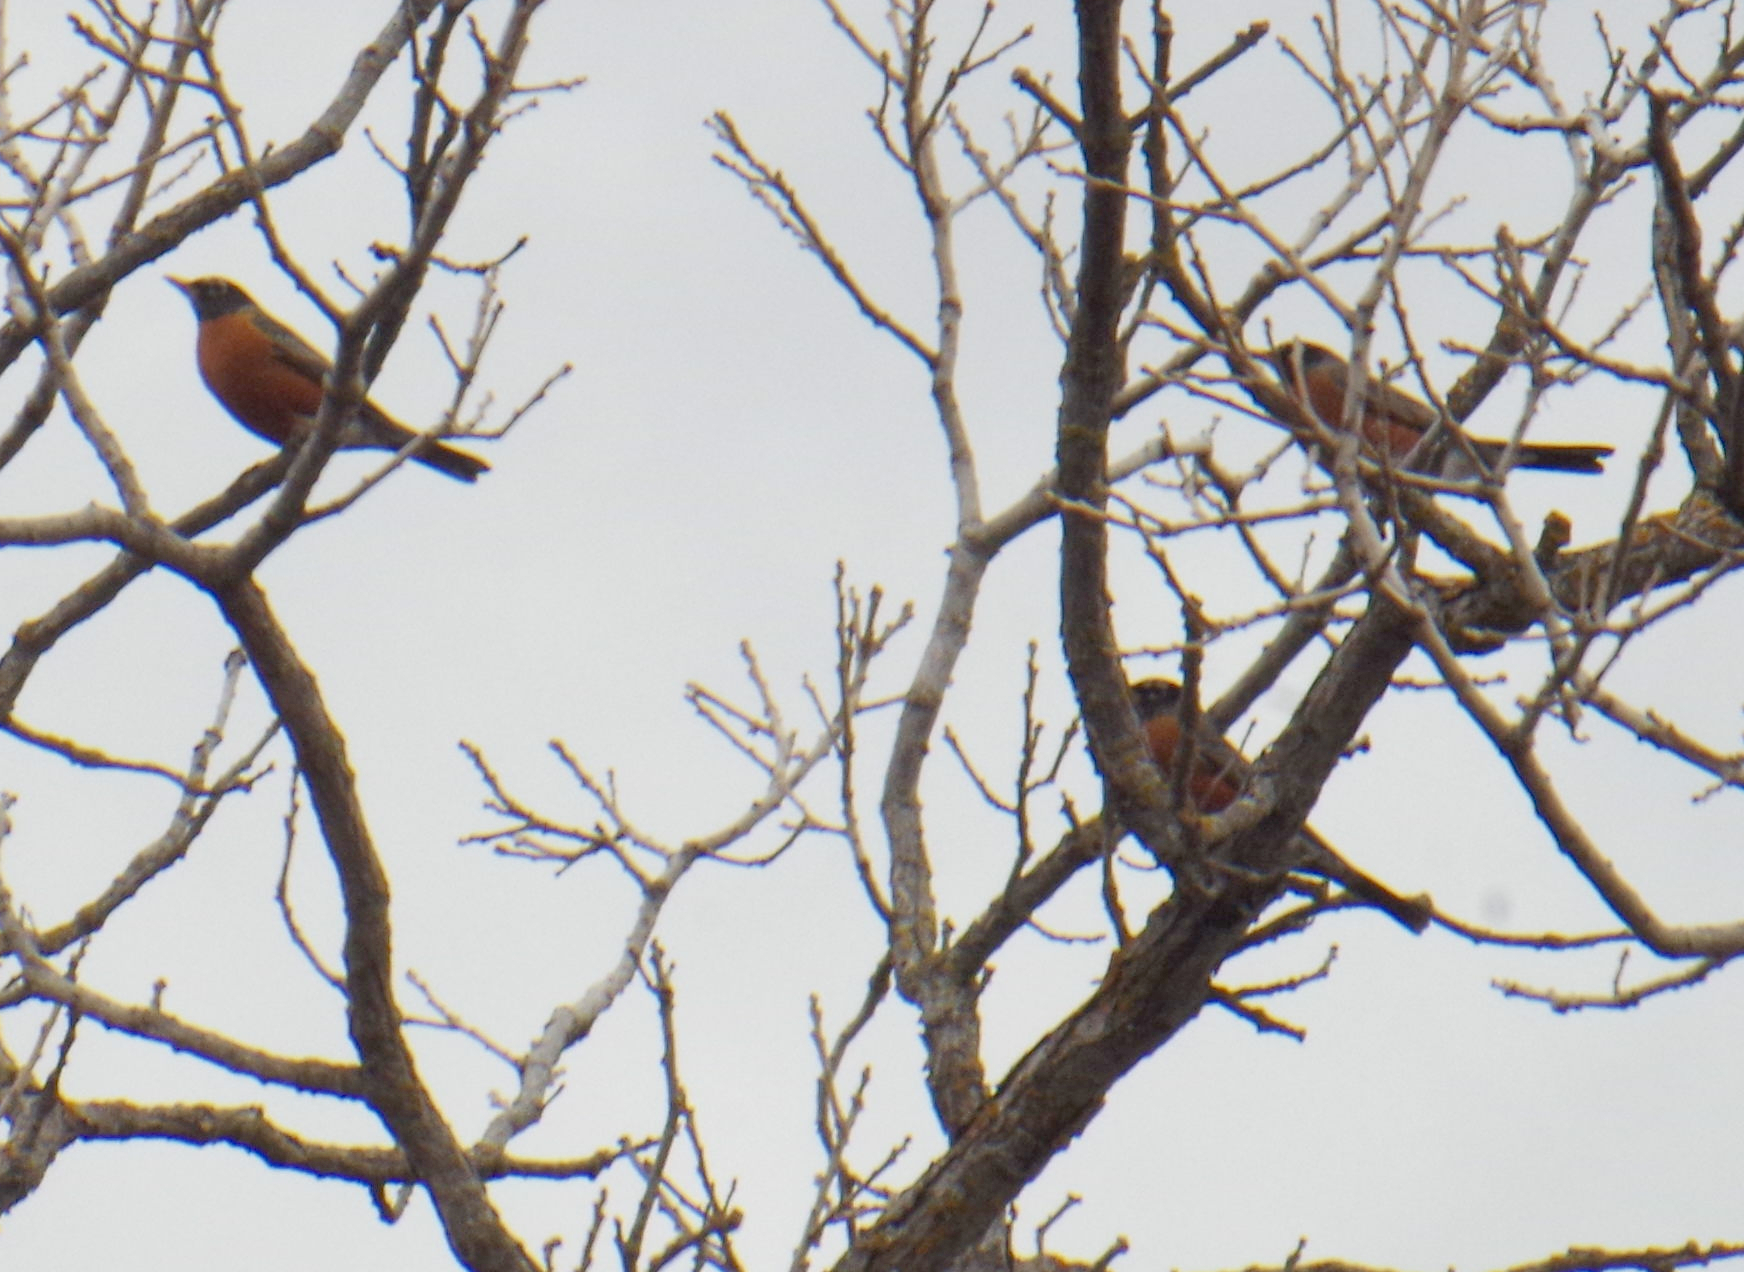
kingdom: Animalia
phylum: Chordata
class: Aves
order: Passeriformes
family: Turdidae
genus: Turdus
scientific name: Turdus migratorius
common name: American robin
